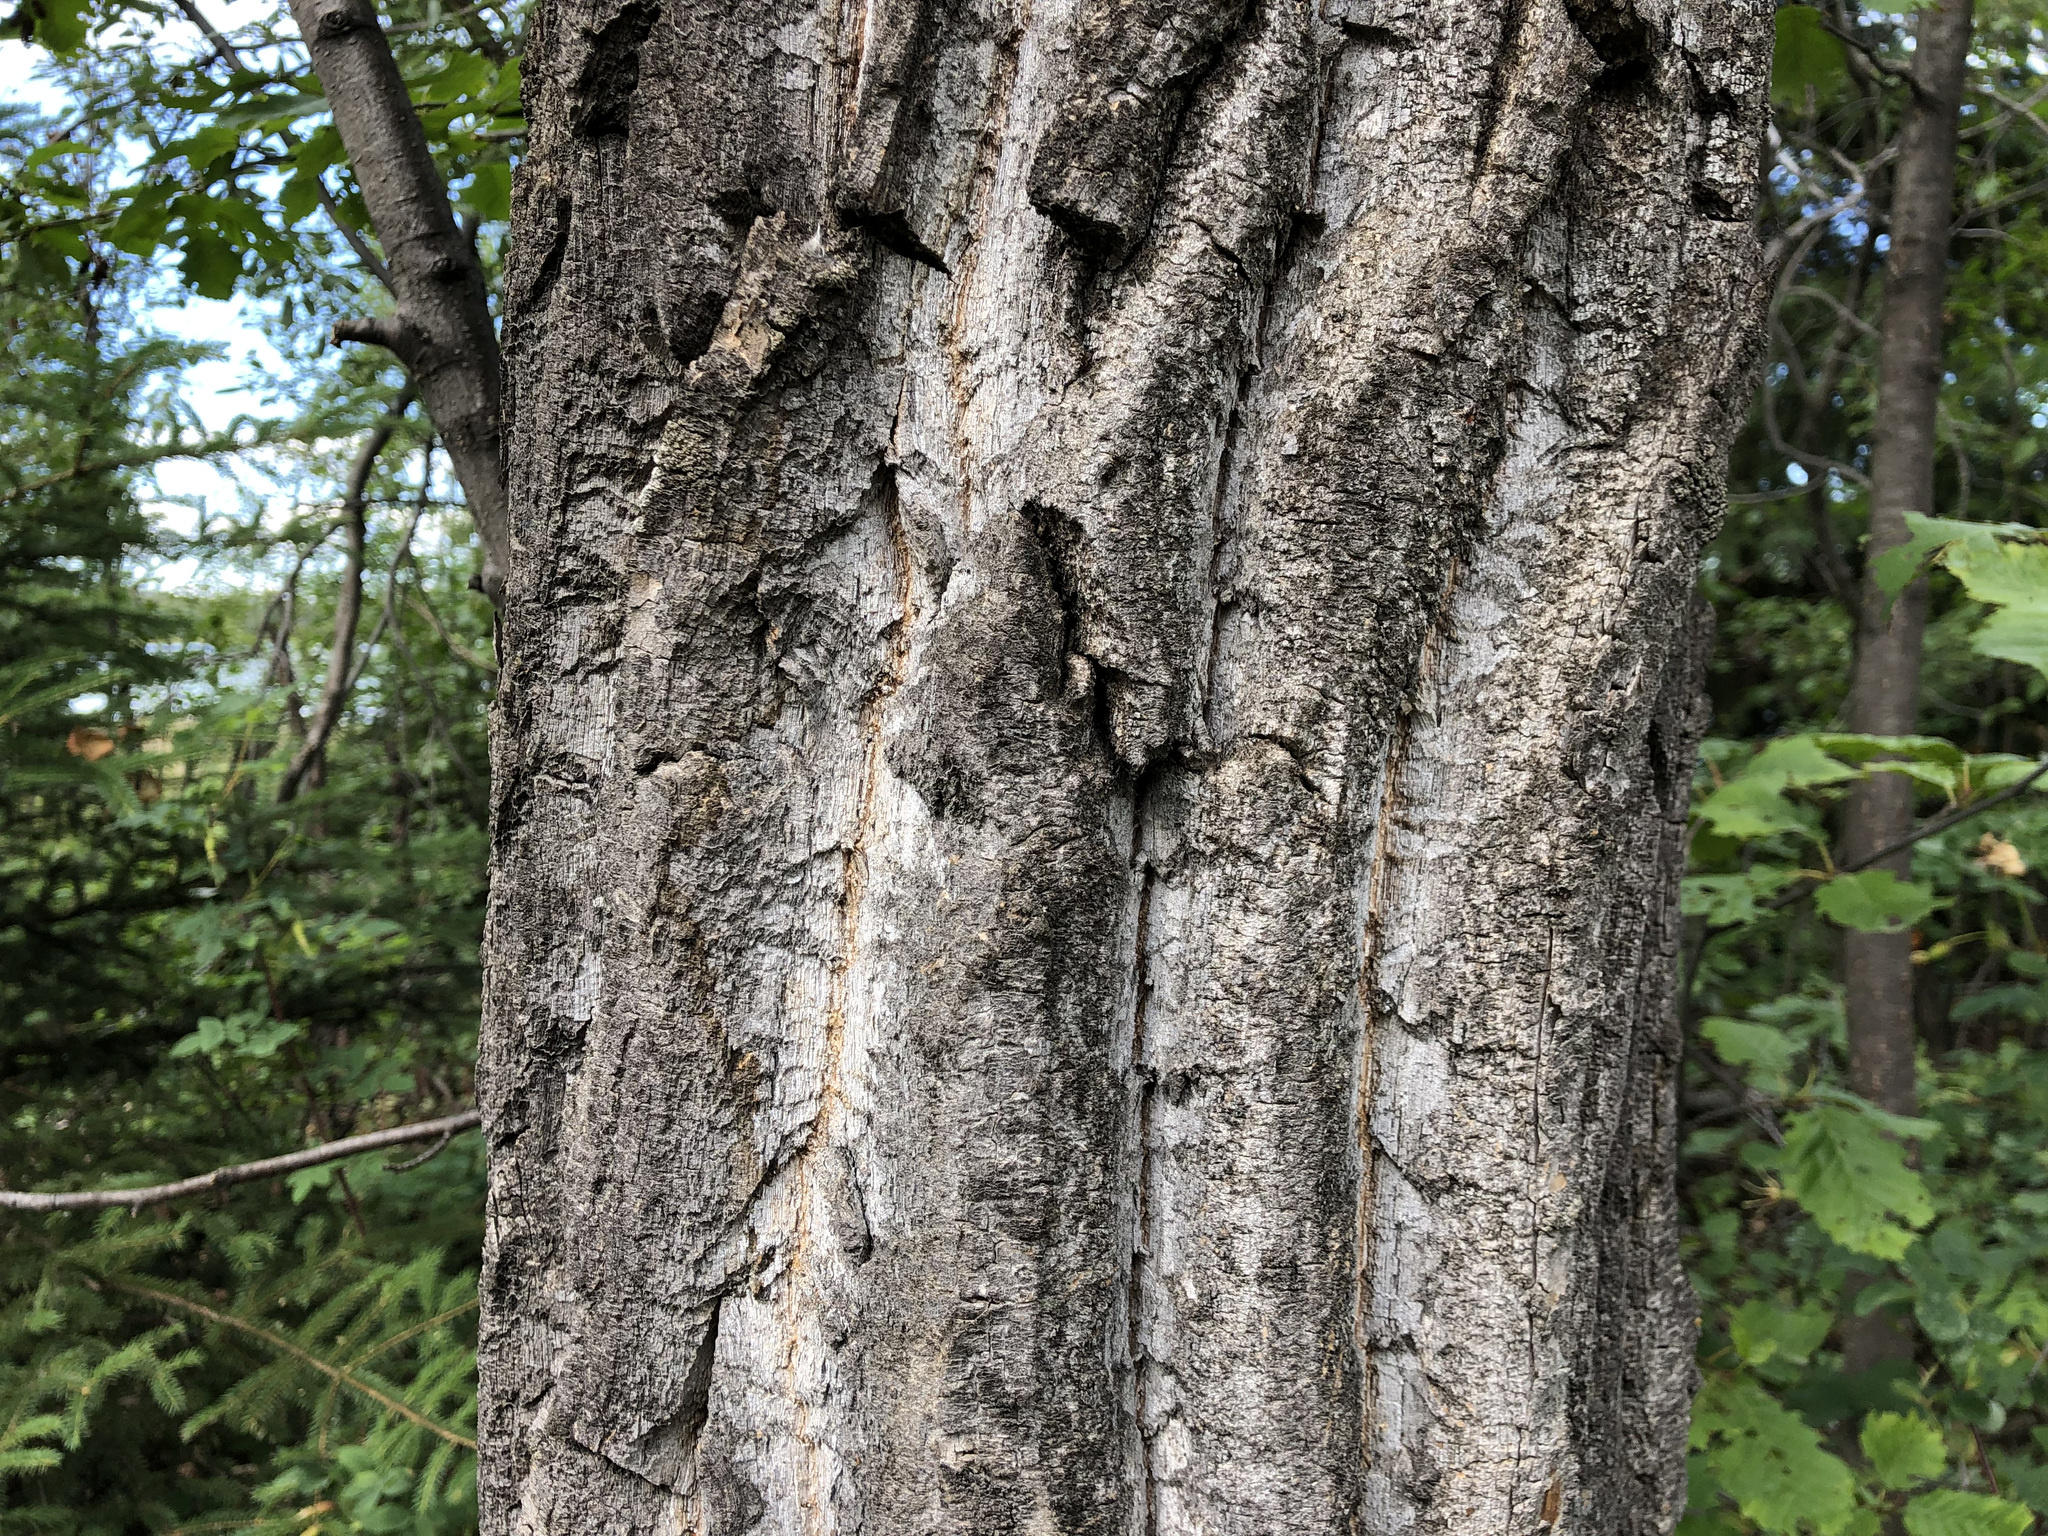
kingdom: Plantae
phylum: Tracheophyta
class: Magnoliopsida
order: Malpighiales
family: Salicaceae
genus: Populus
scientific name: Populus balsamifera
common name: Balsam poplar
